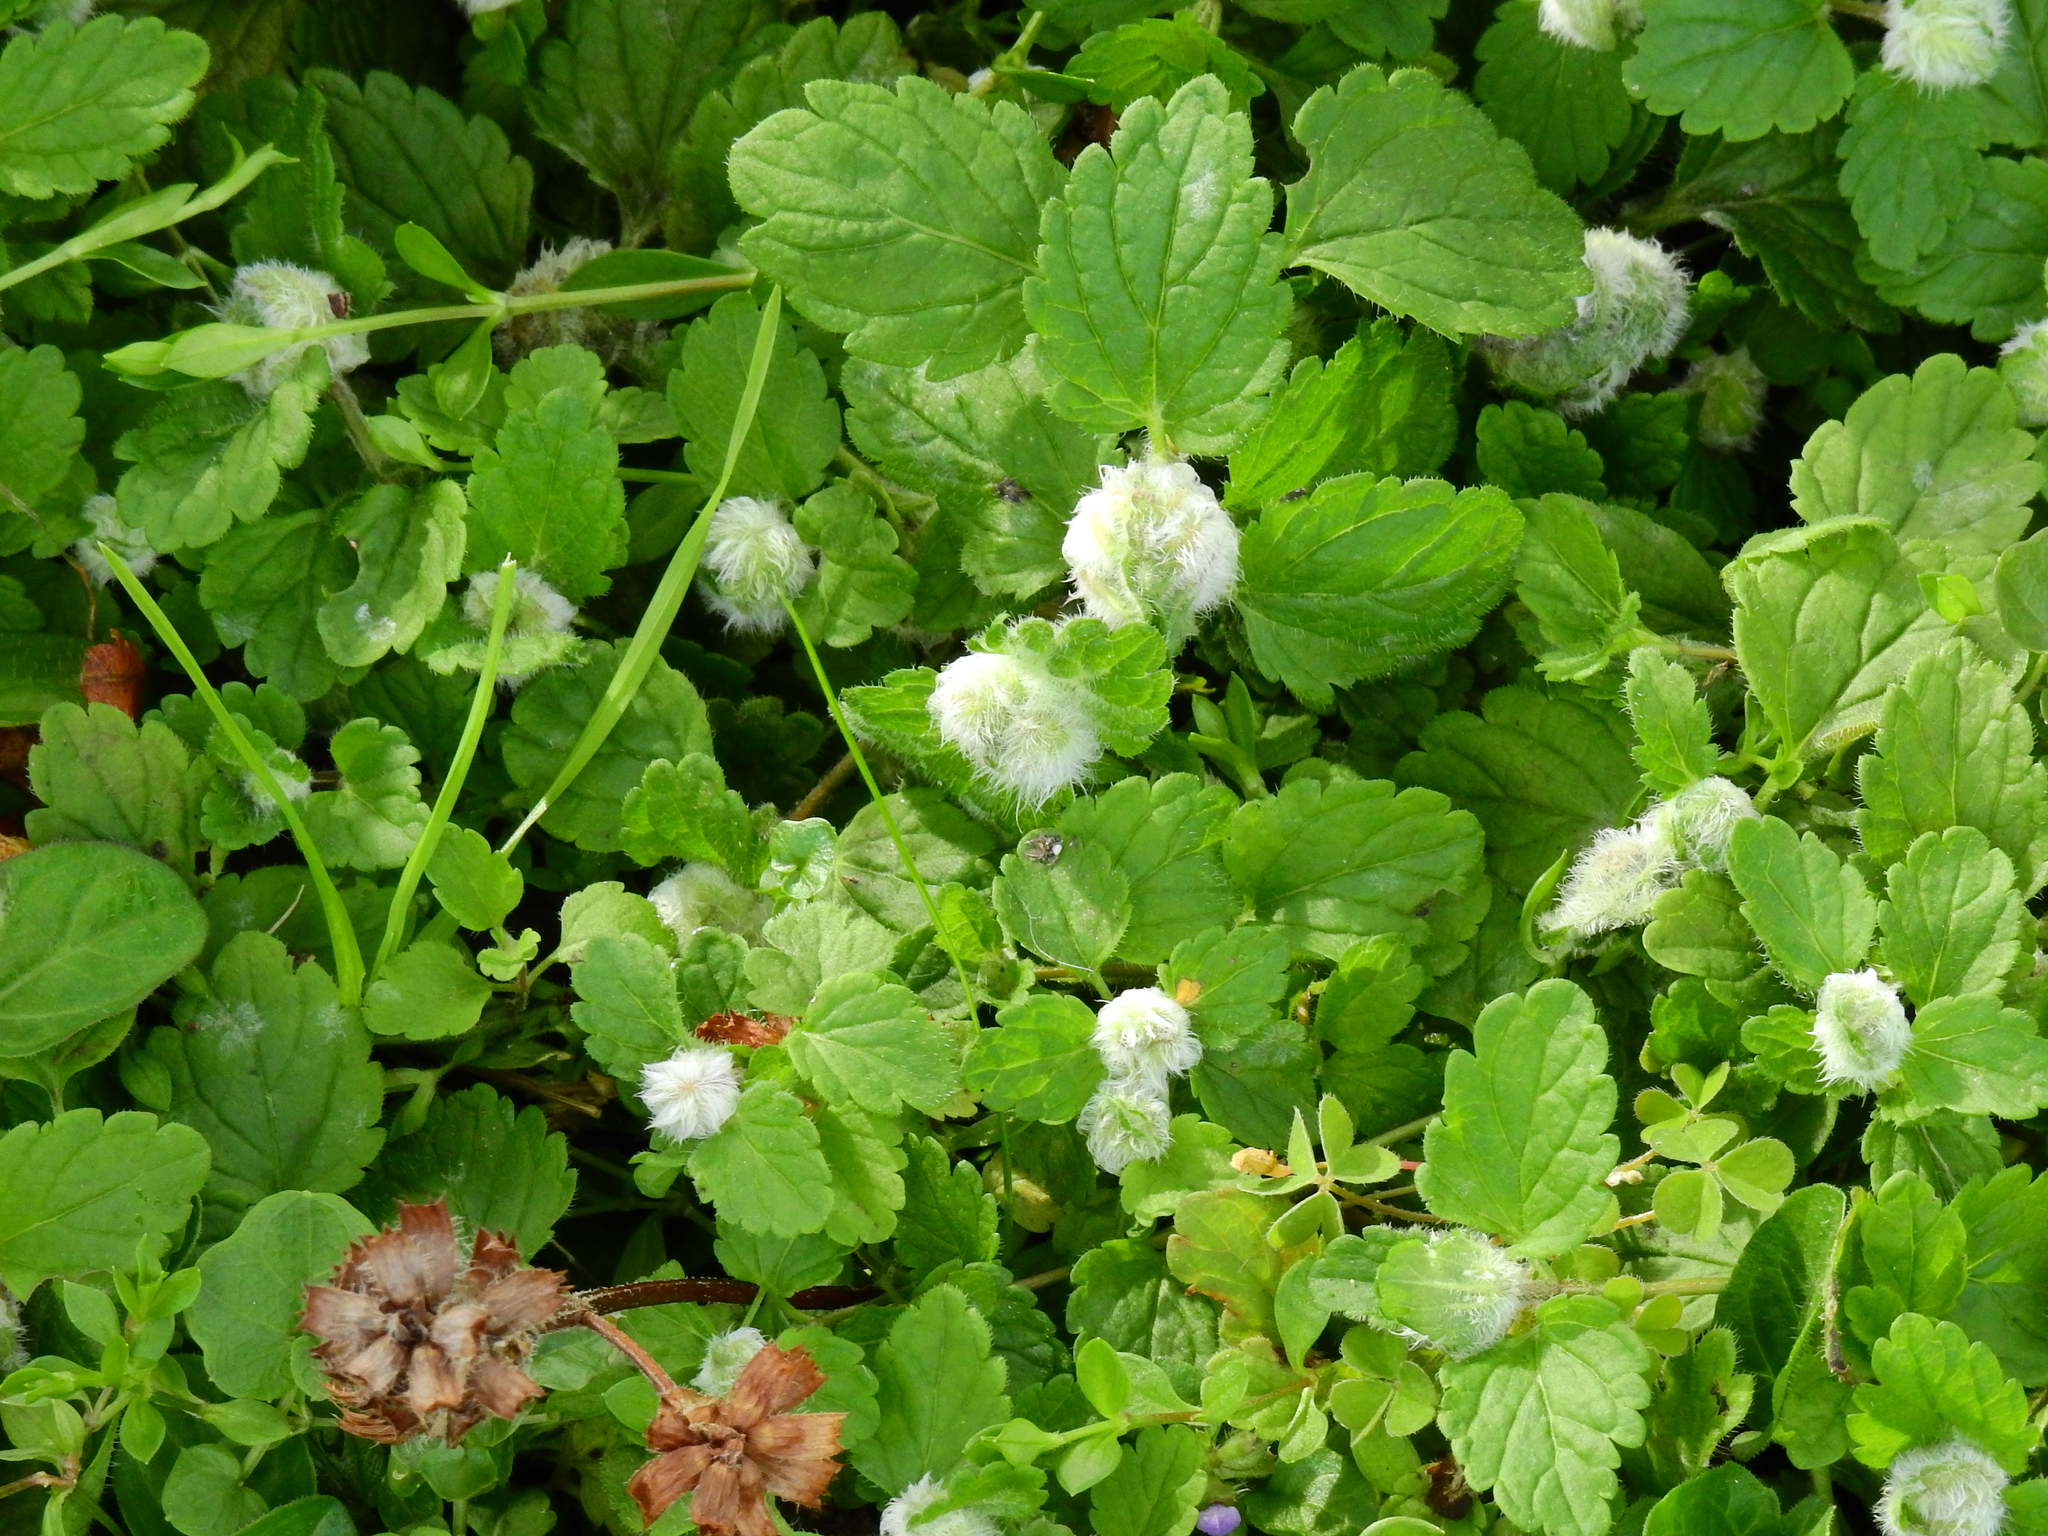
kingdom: Animalia
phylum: Arthropoda
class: Insecta
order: Diptera
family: Cecidomyiidae
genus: Jaapiella
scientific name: Jaapiella veronicae
